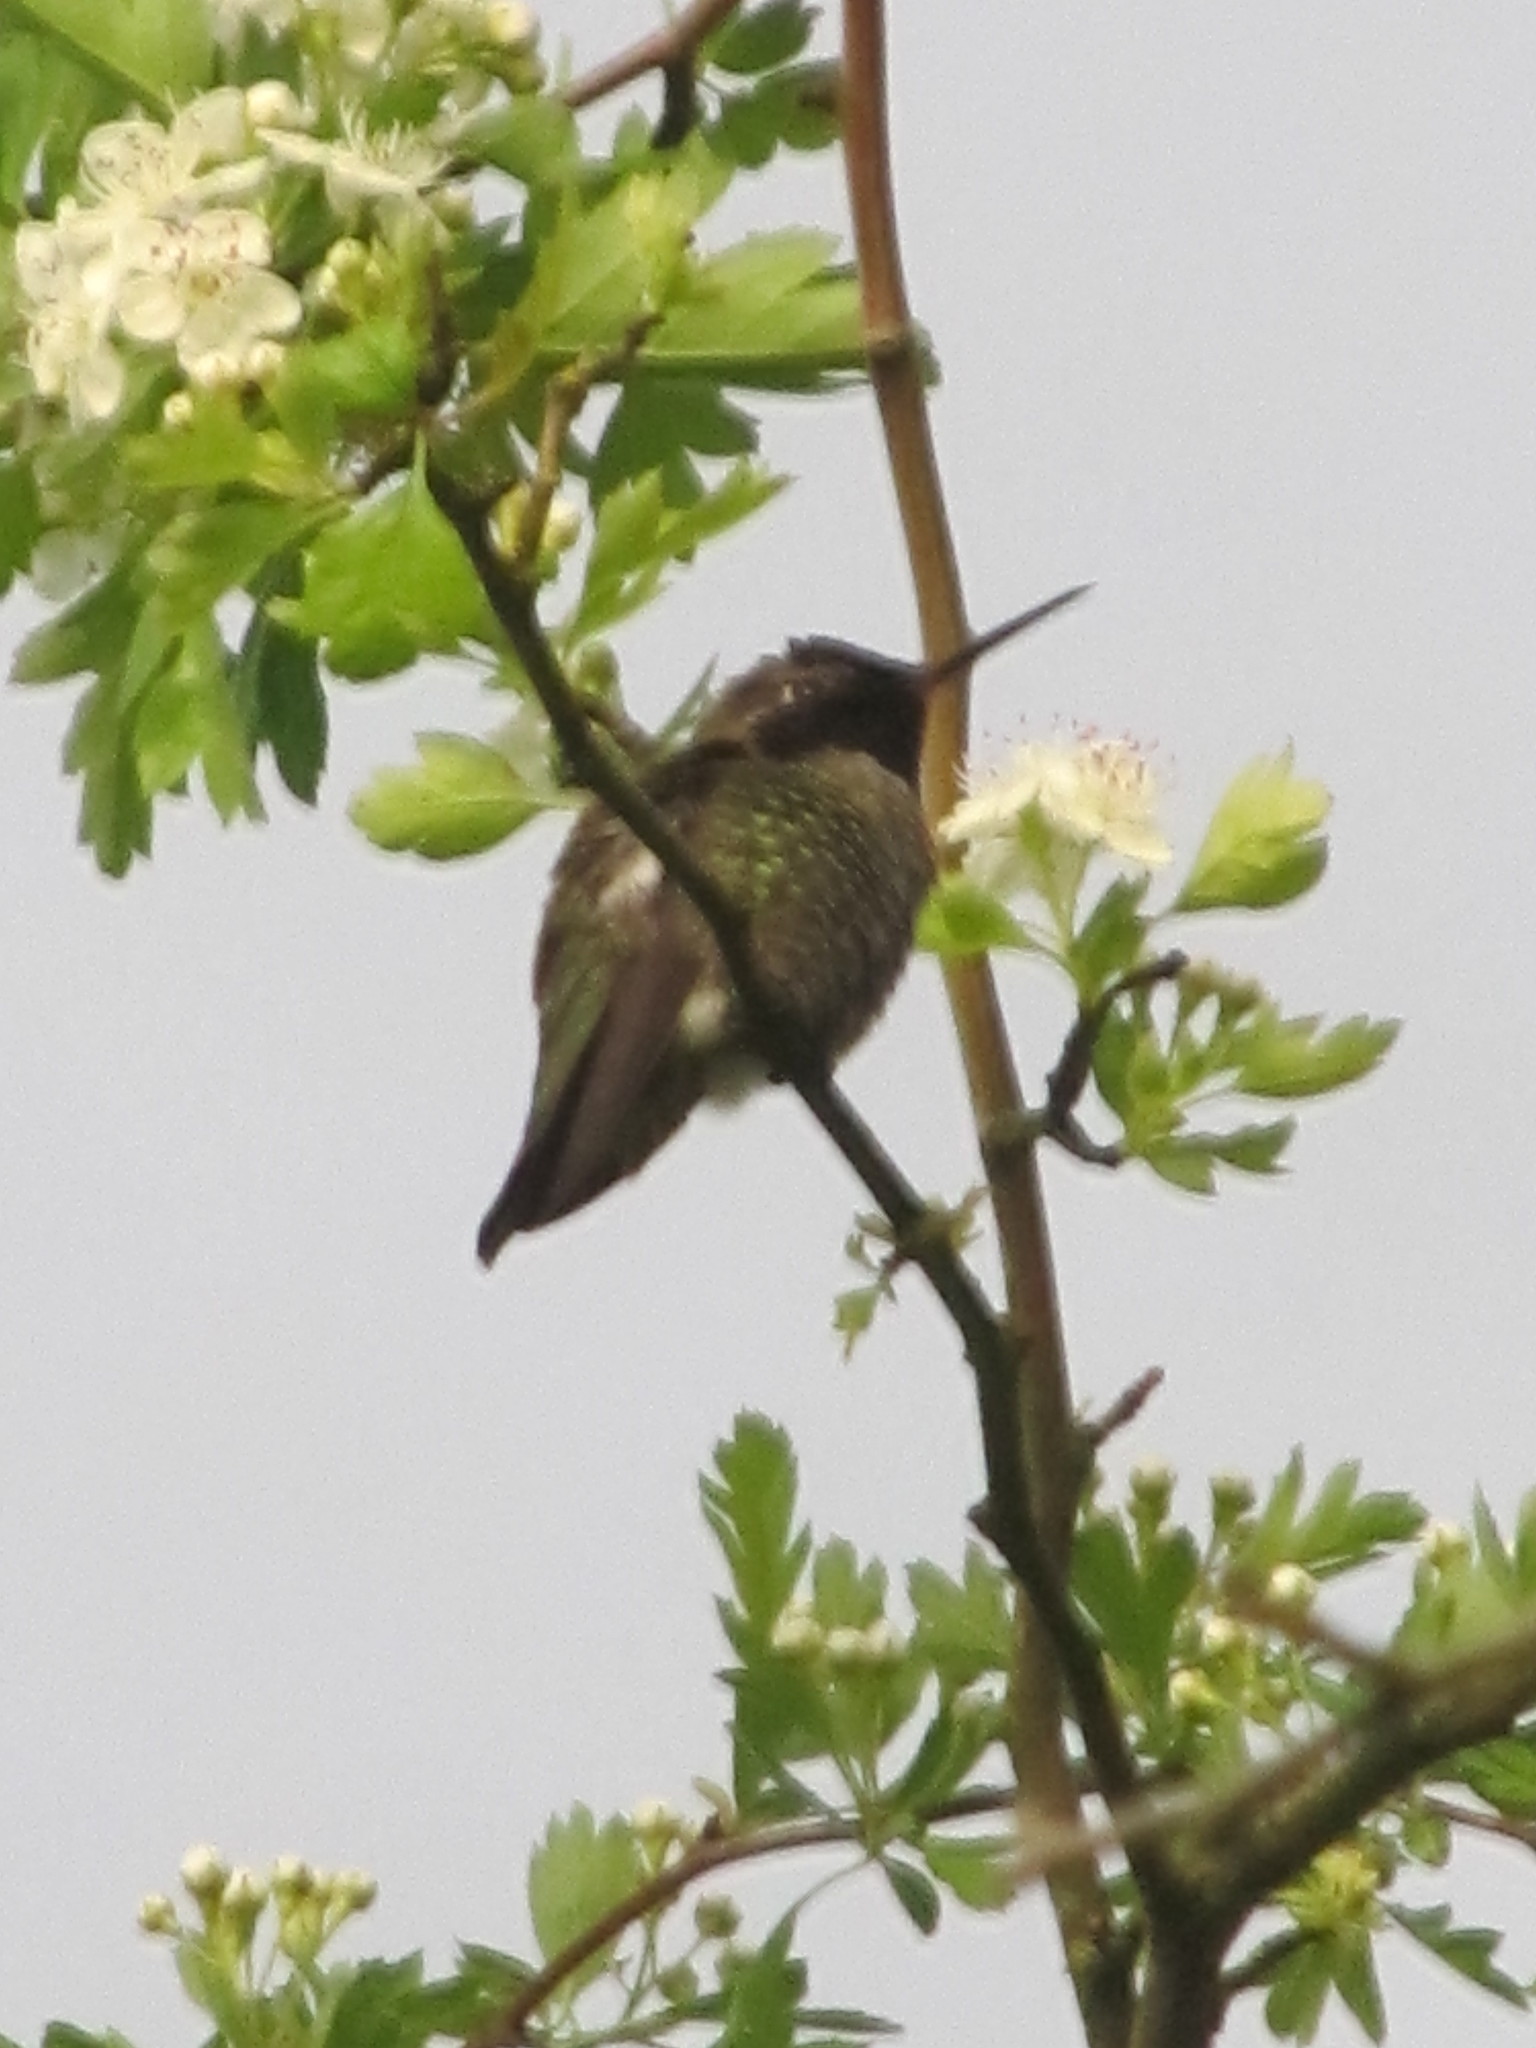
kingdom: Animalia
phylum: Chordata
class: Aves
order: Apodiformes
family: Trochilidae
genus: Calypte
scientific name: Calypte anna
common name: Anna's hummingbird
